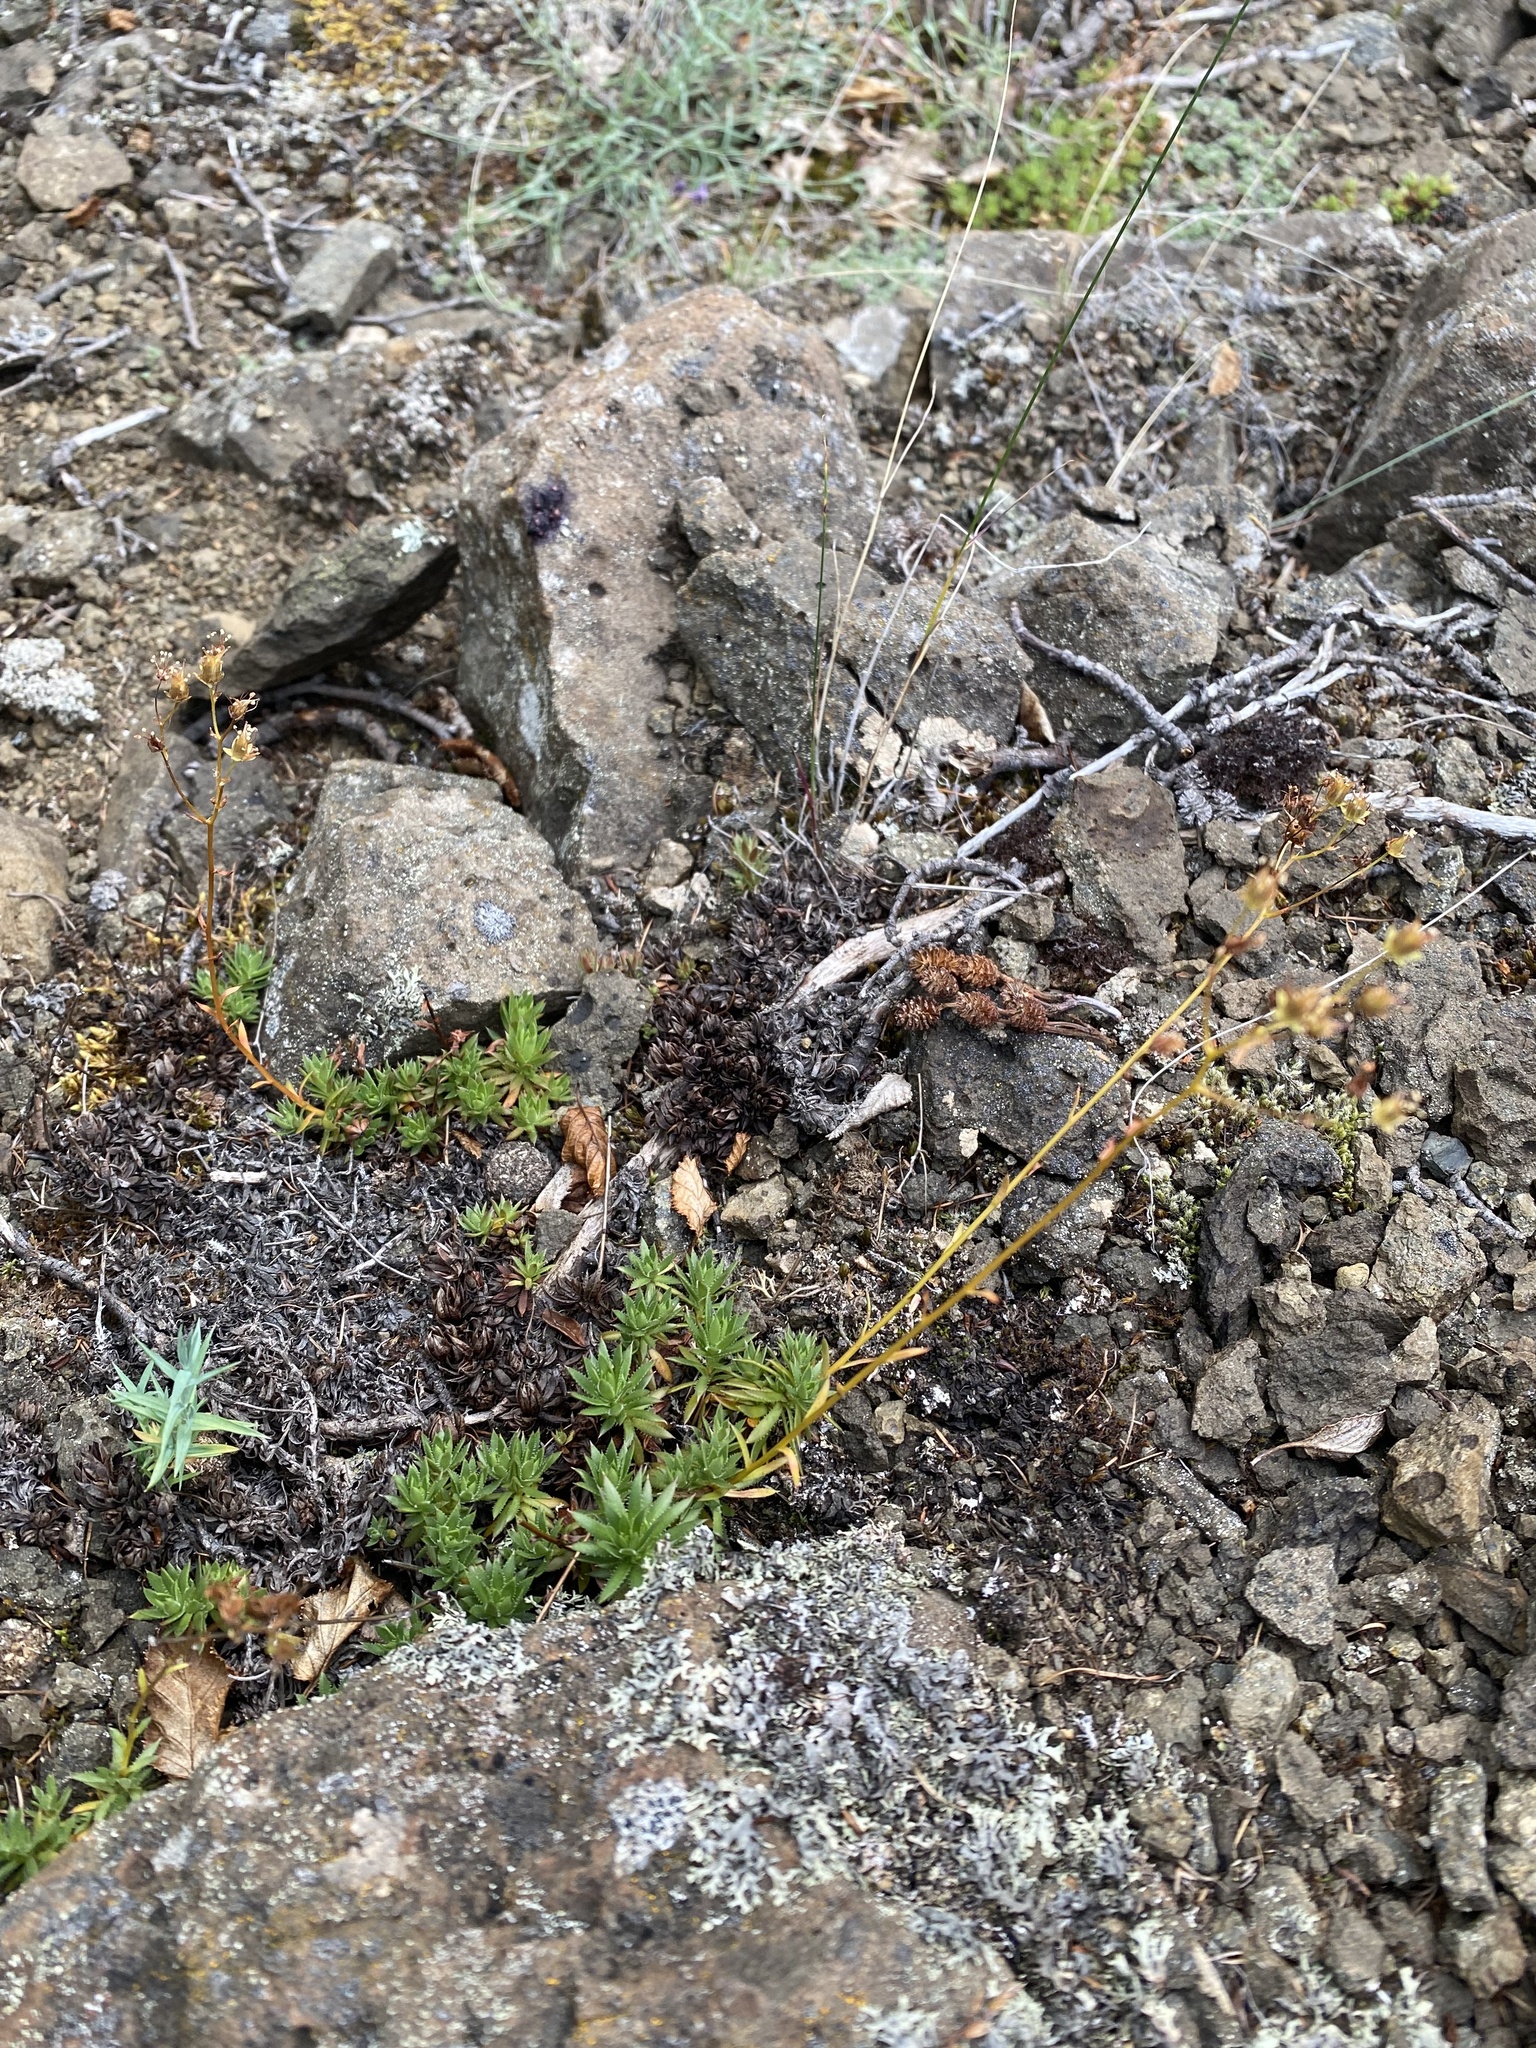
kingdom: Plantae
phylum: Tracheophyta
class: Magnoliopsida
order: Saxifragales
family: Saxifragaceae
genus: Saxifraga
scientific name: Saxifraga
